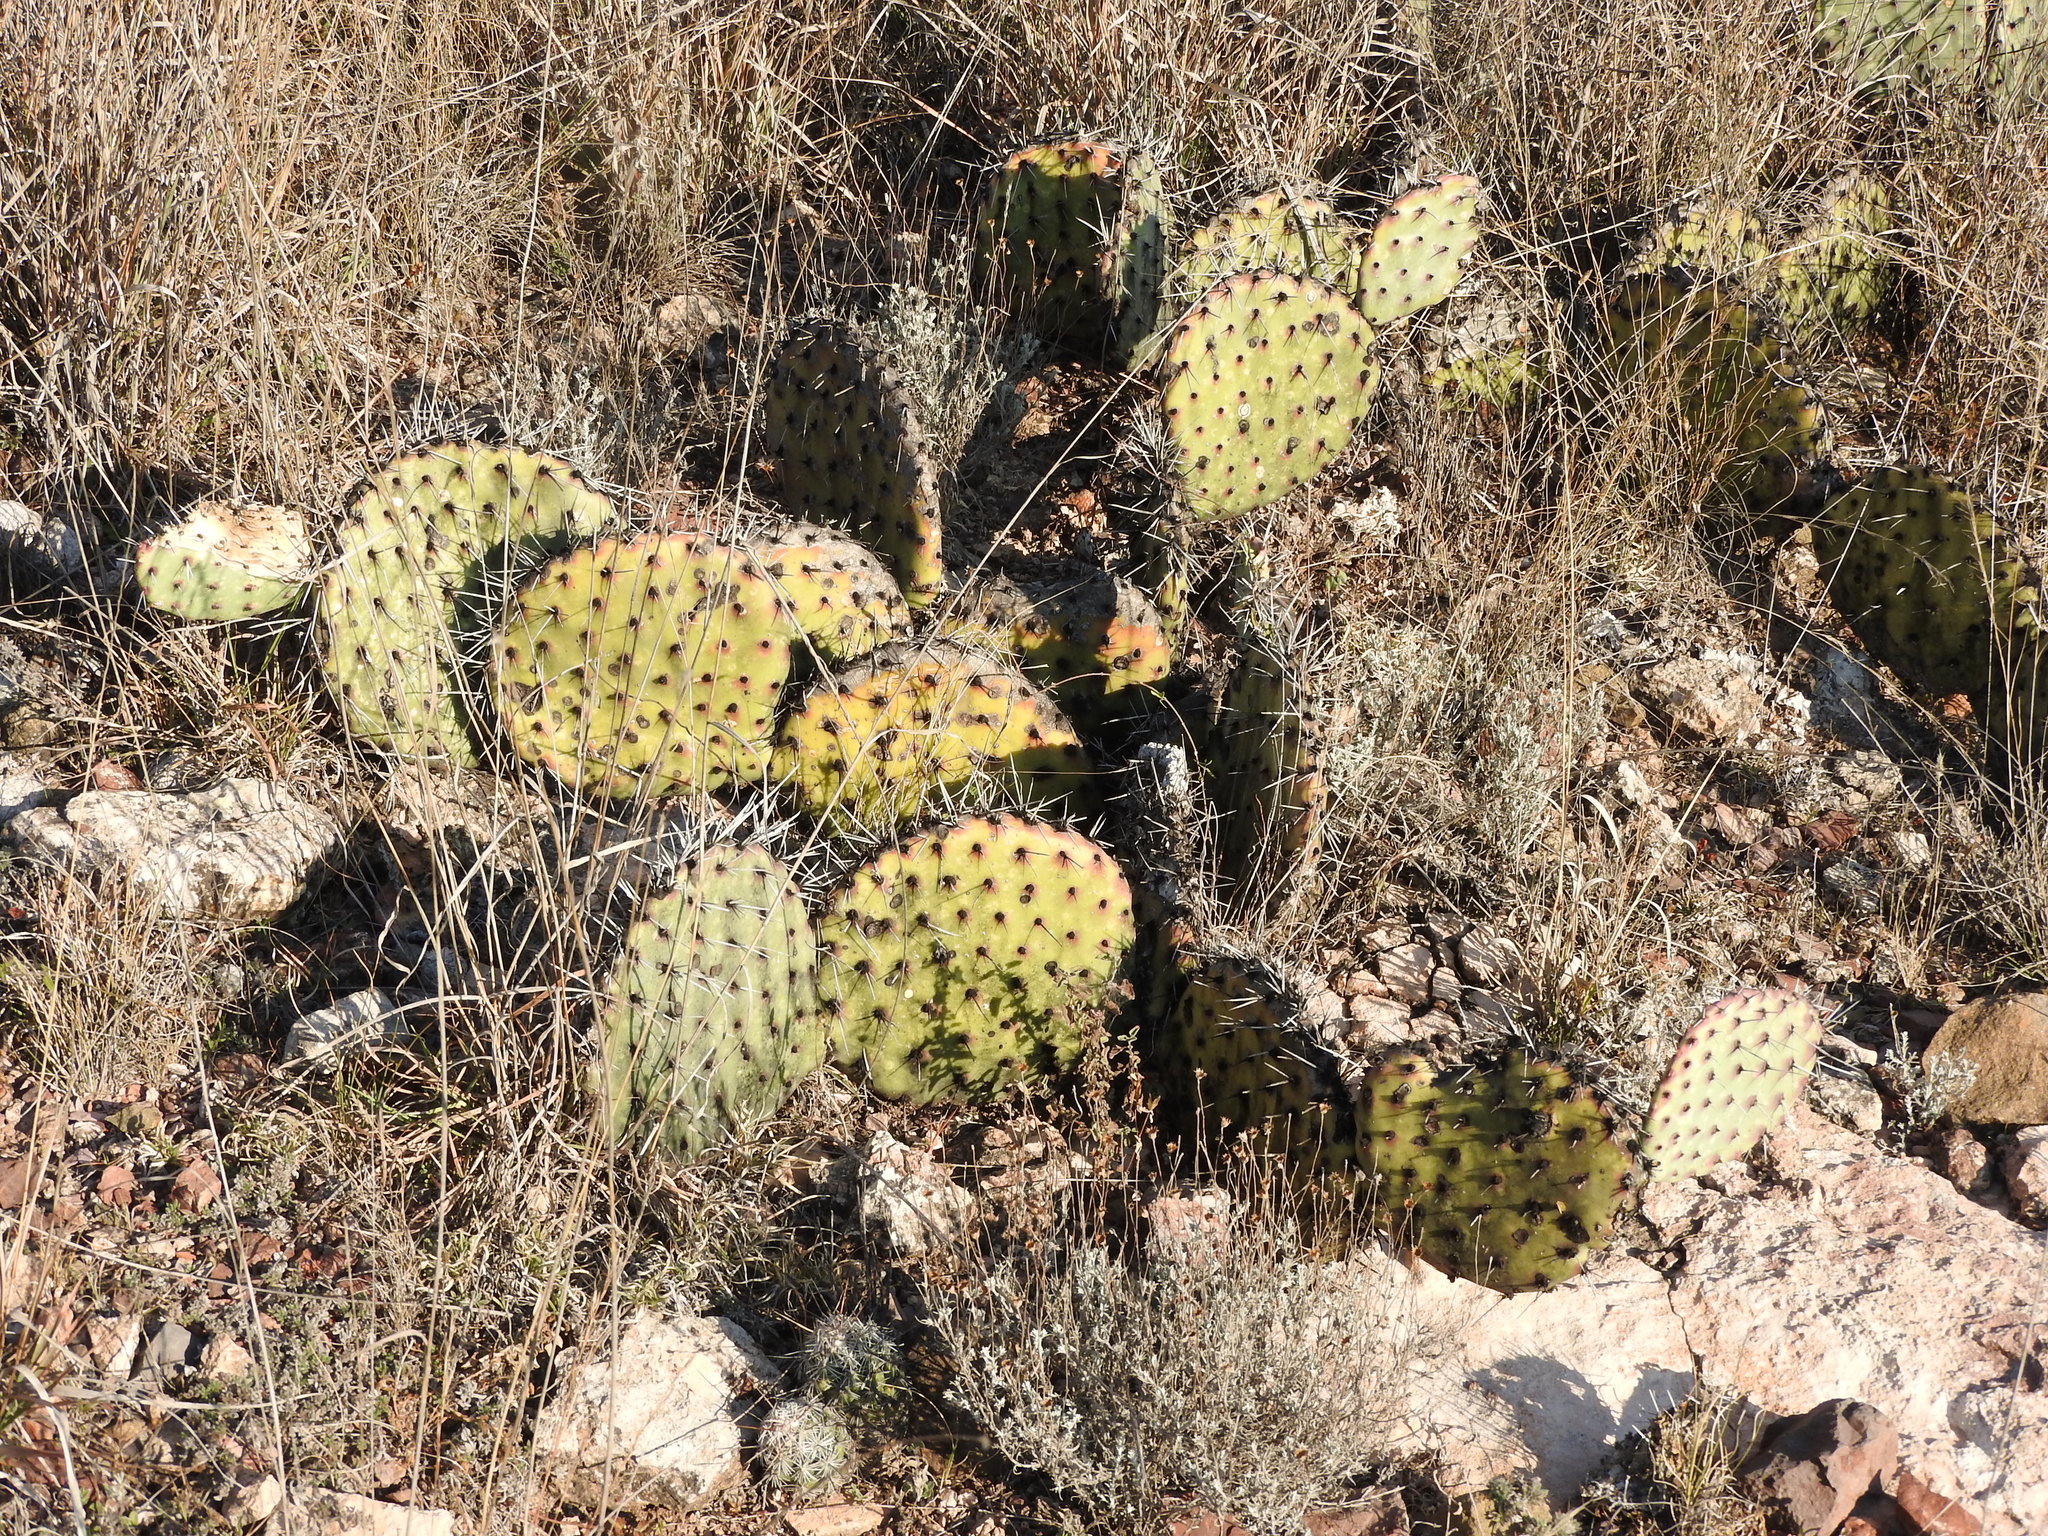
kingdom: Plantae
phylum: Tracheophyta
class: Magnoliopsida
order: Caryophyllales
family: Cactaceae
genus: Opuntia
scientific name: Opuntia stenopetala
